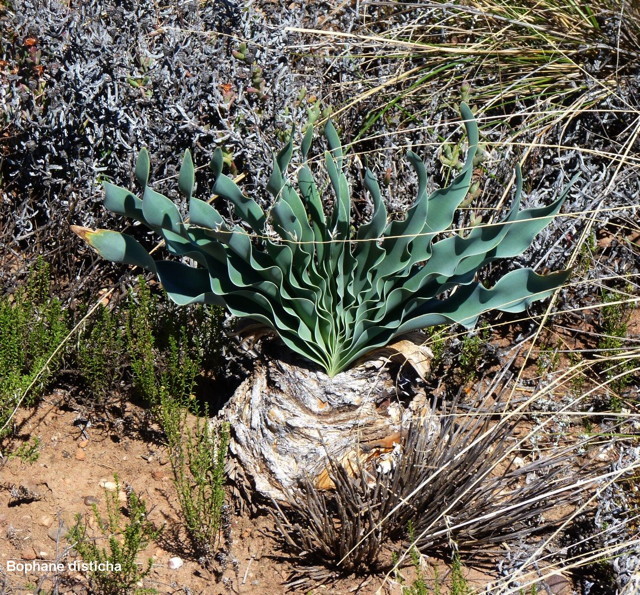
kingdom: Plantae
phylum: Tracheophyta
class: Liliopsida
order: Asparagales
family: Amaryllidaceae
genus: Boophone
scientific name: Boophone disticha
